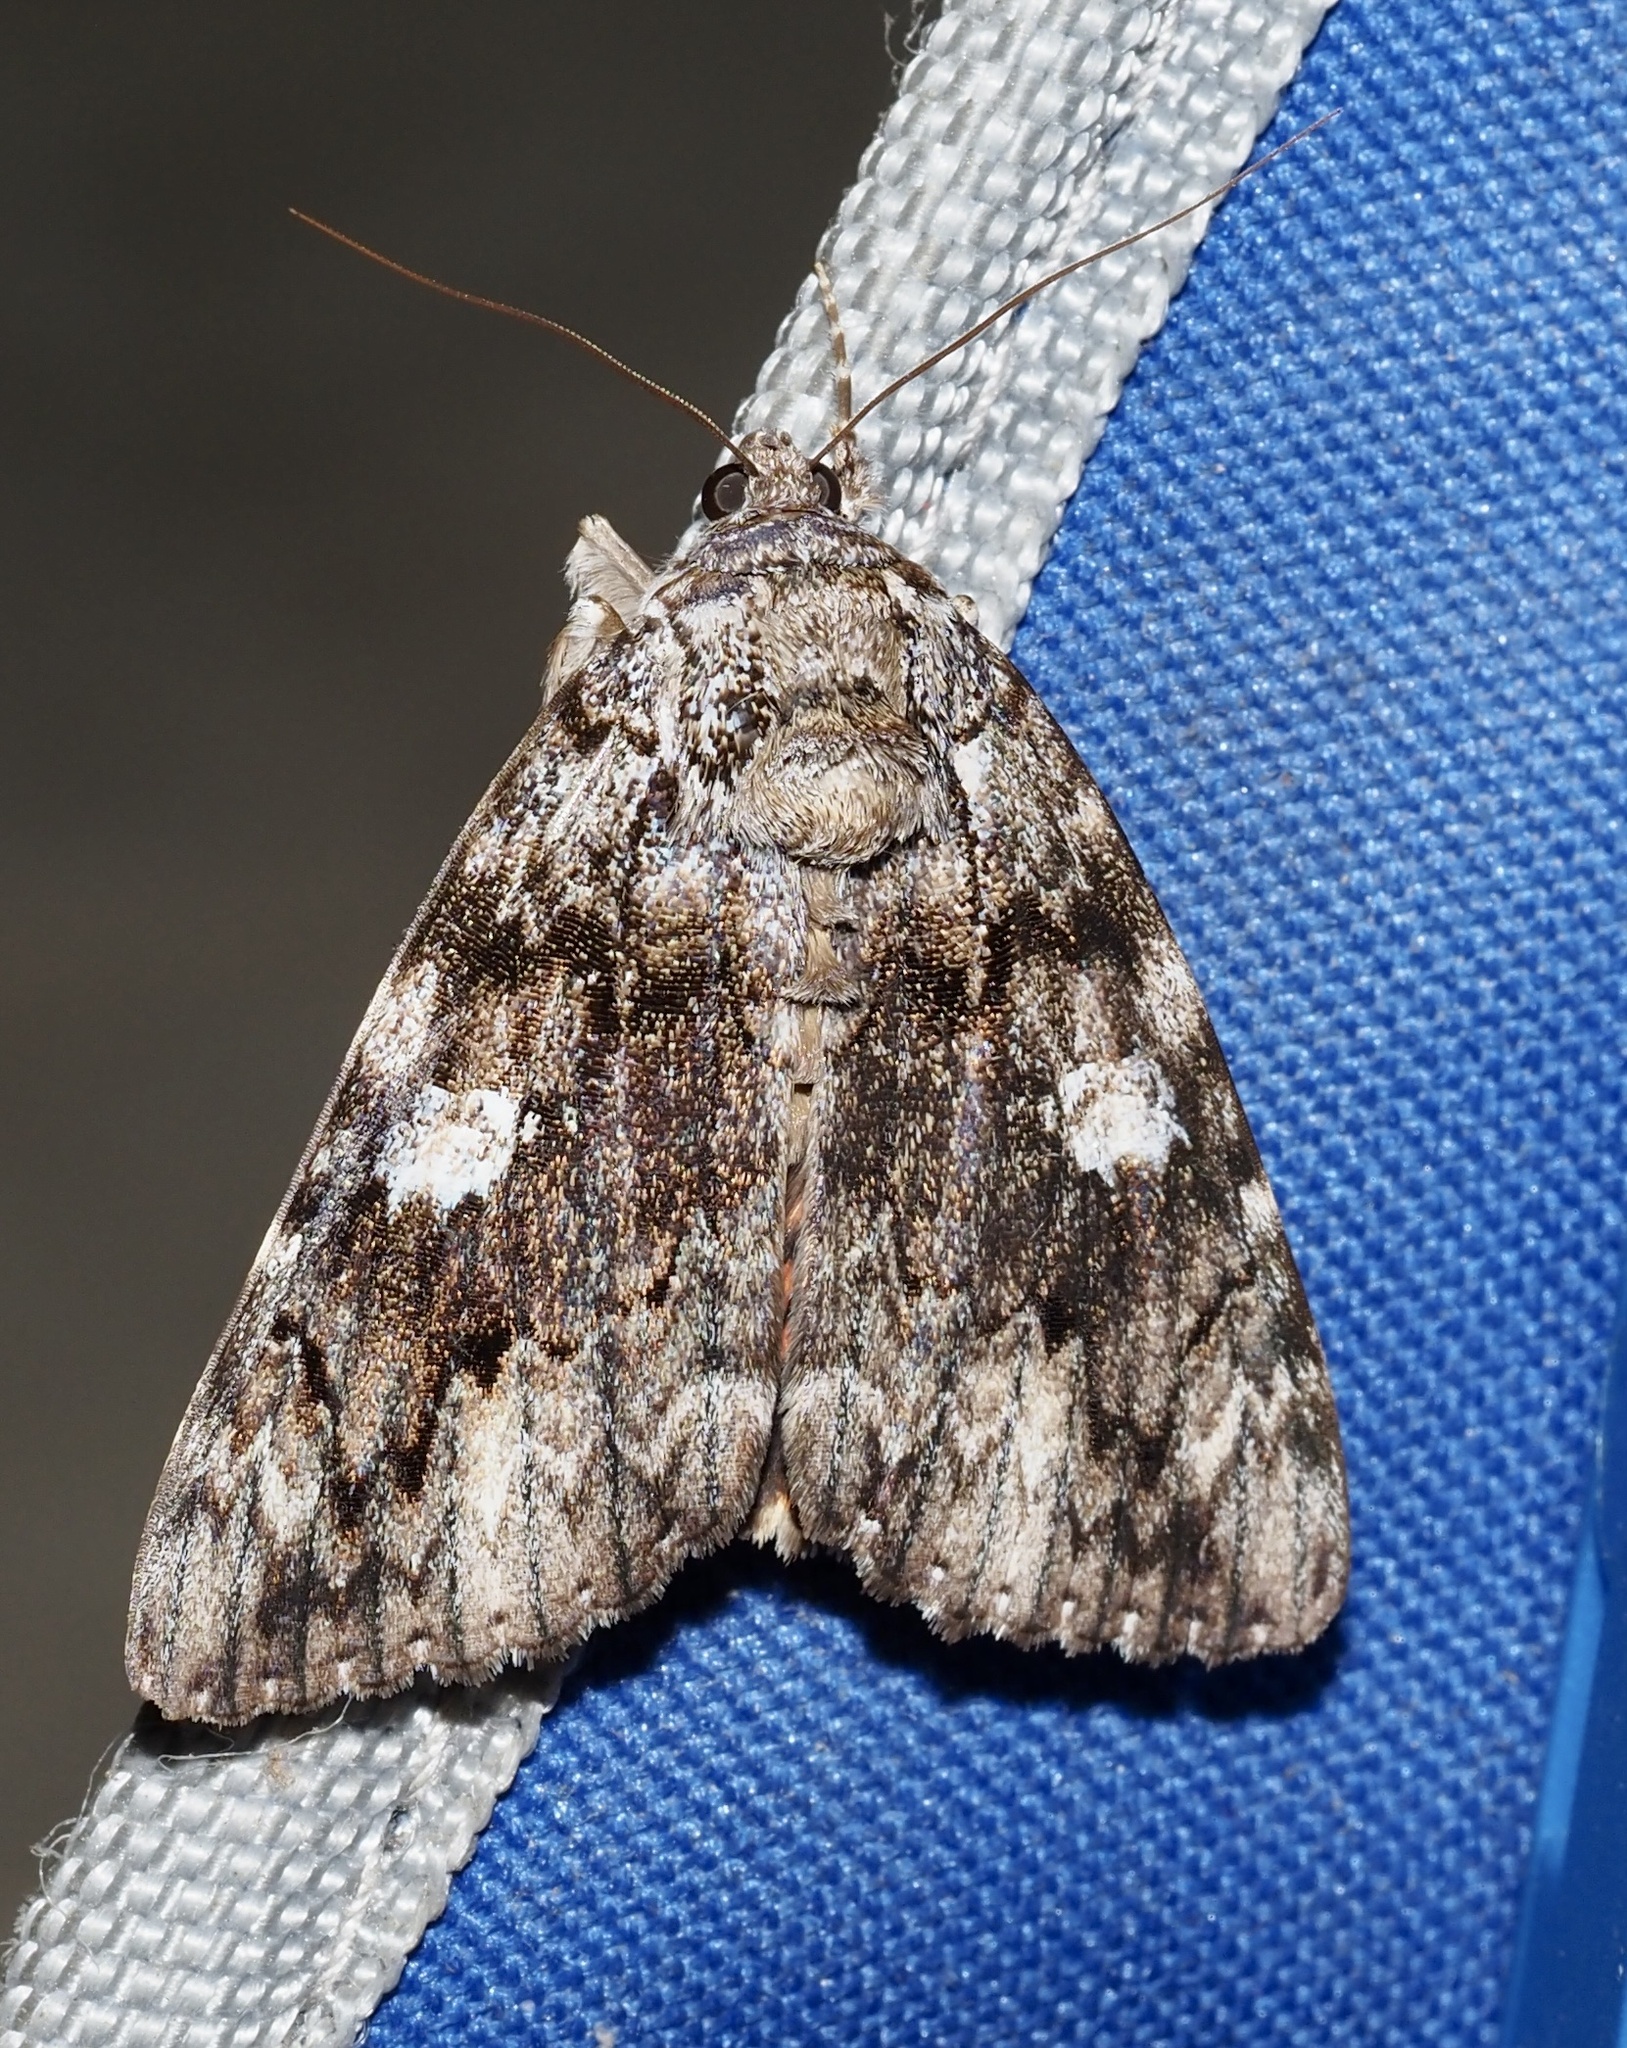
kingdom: Animalia
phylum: Arthropoda
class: Insecta
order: Lepidoptera
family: Erebidae
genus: Catocala
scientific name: Catocala ilia
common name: Ilia underwing
